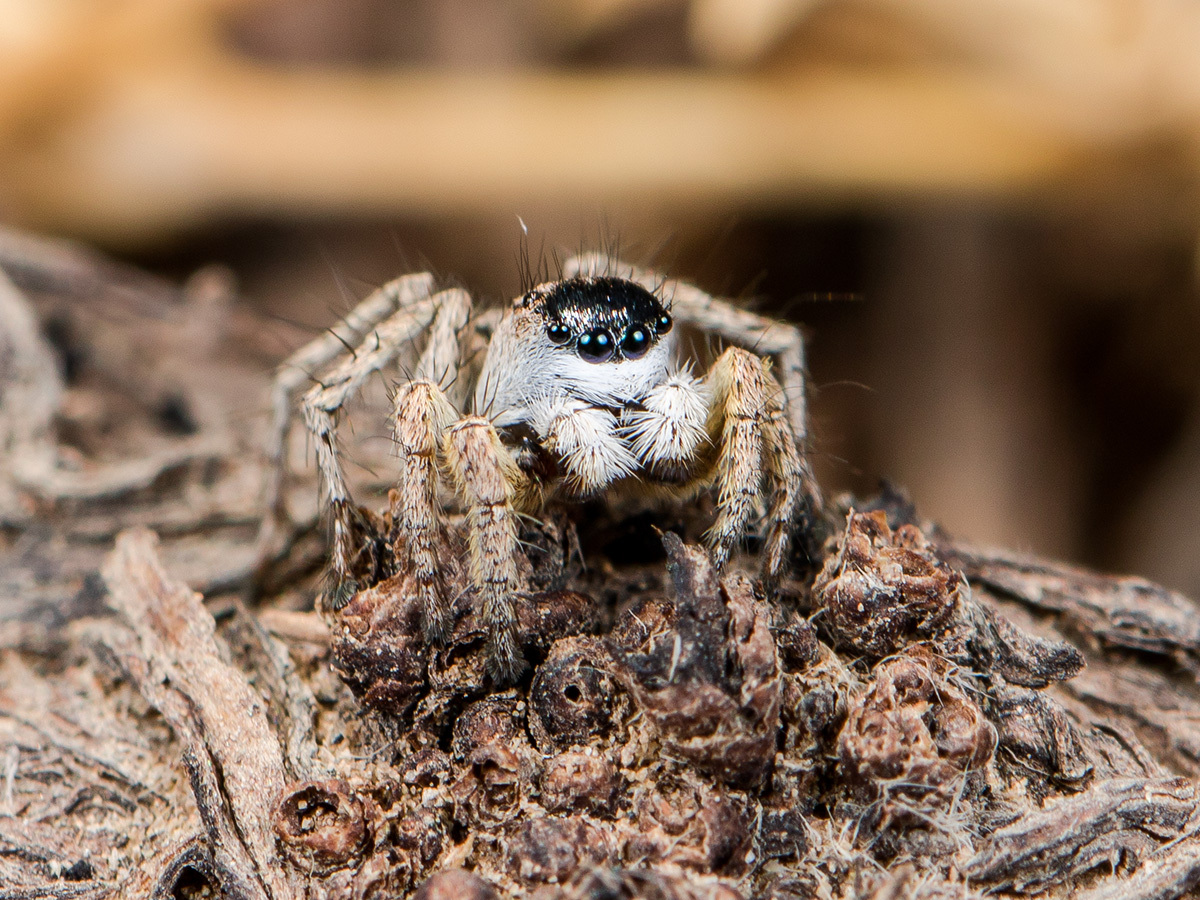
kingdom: Animalia
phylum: Arthropoda
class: Arachnida
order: Araneae
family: Salticidae
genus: Aelurillus
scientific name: Aelurillus m-nigrum
